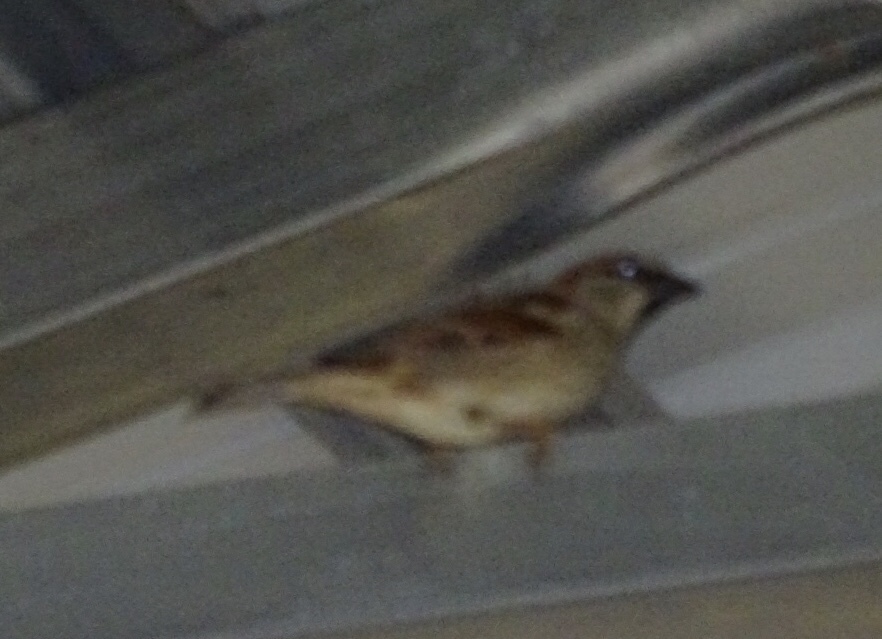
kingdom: Animalia
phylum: Chordata
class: Aves
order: Passeriformes
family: Passeridae
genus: Passer
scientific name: Passer domesticus
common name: House sparrow
